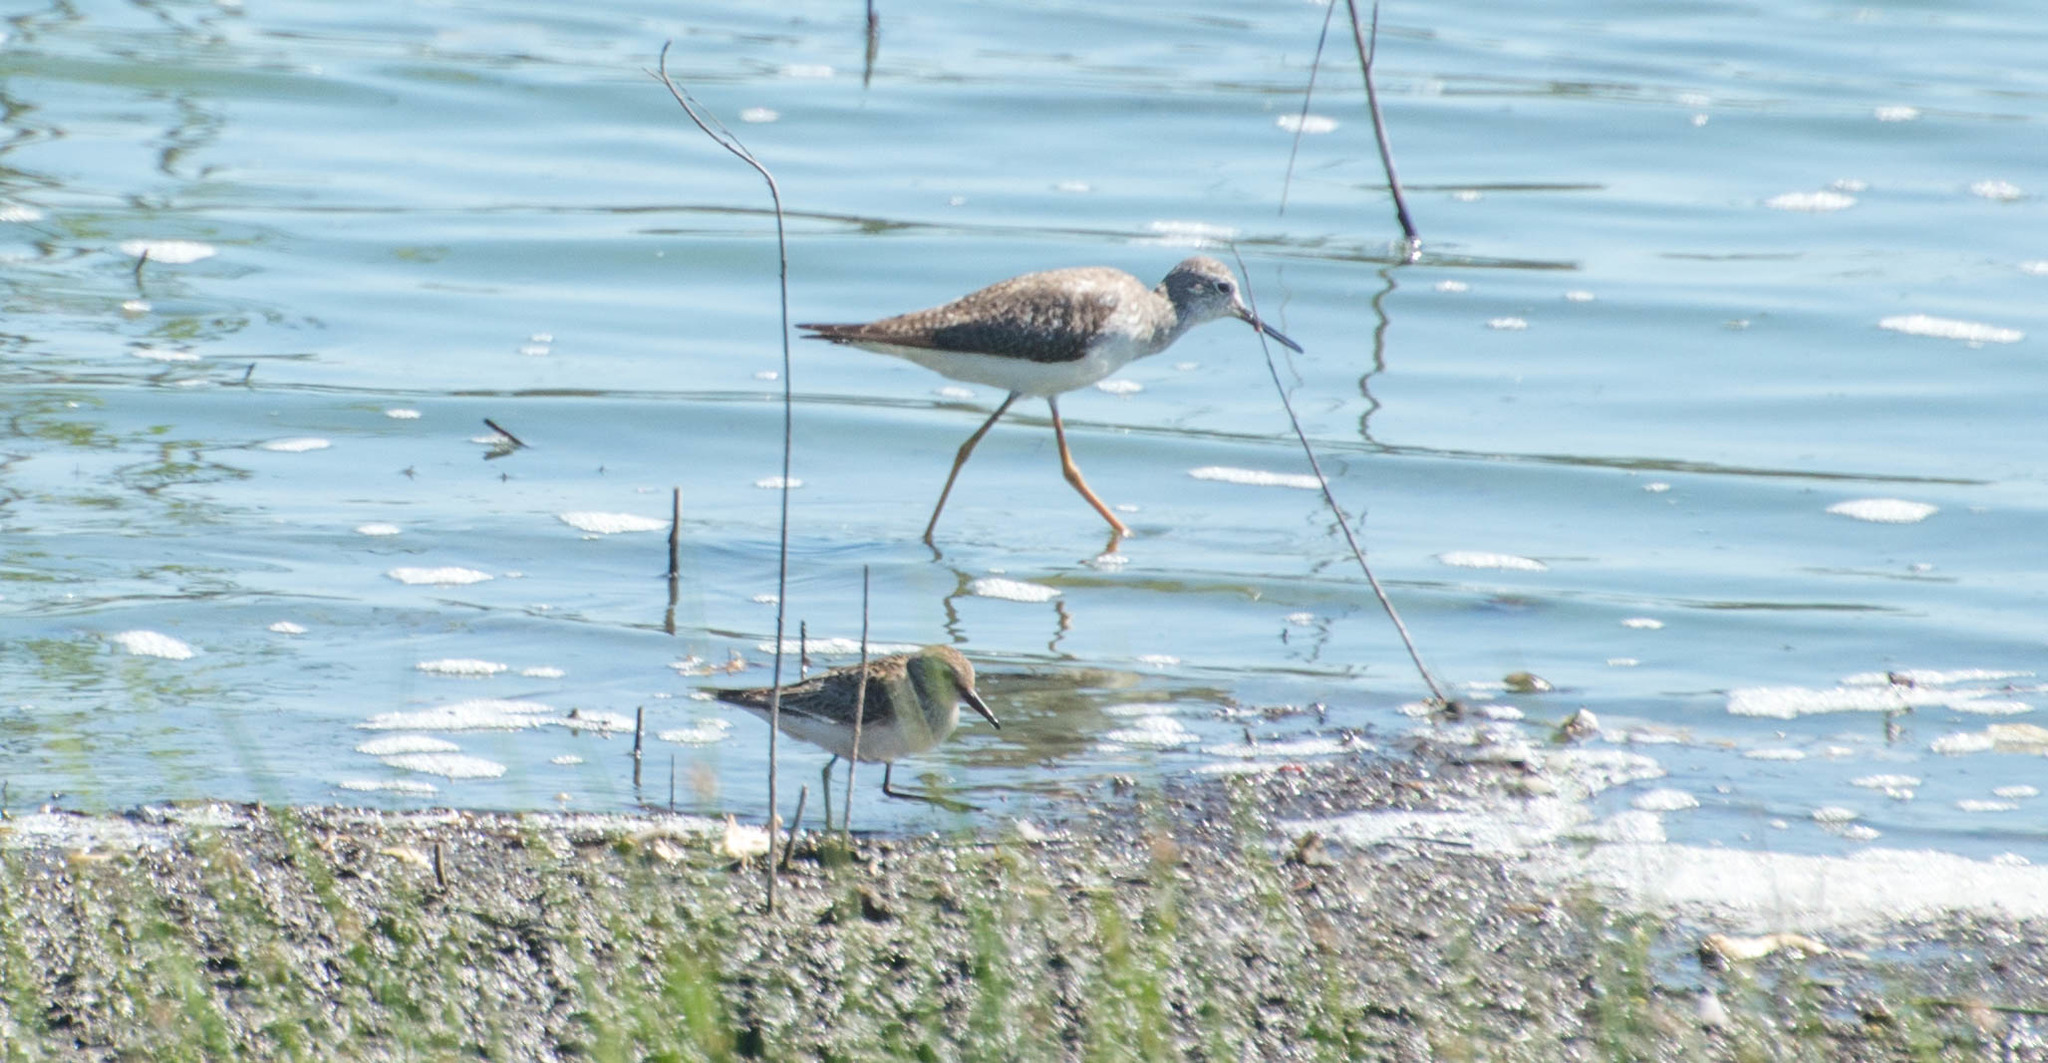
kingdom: Animalia
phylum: Chordata
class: Aves
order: Charadriiformes
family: Scolopacidae
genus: Tringa
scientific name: Tringa flavipes
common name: Lesser yellowlegs
